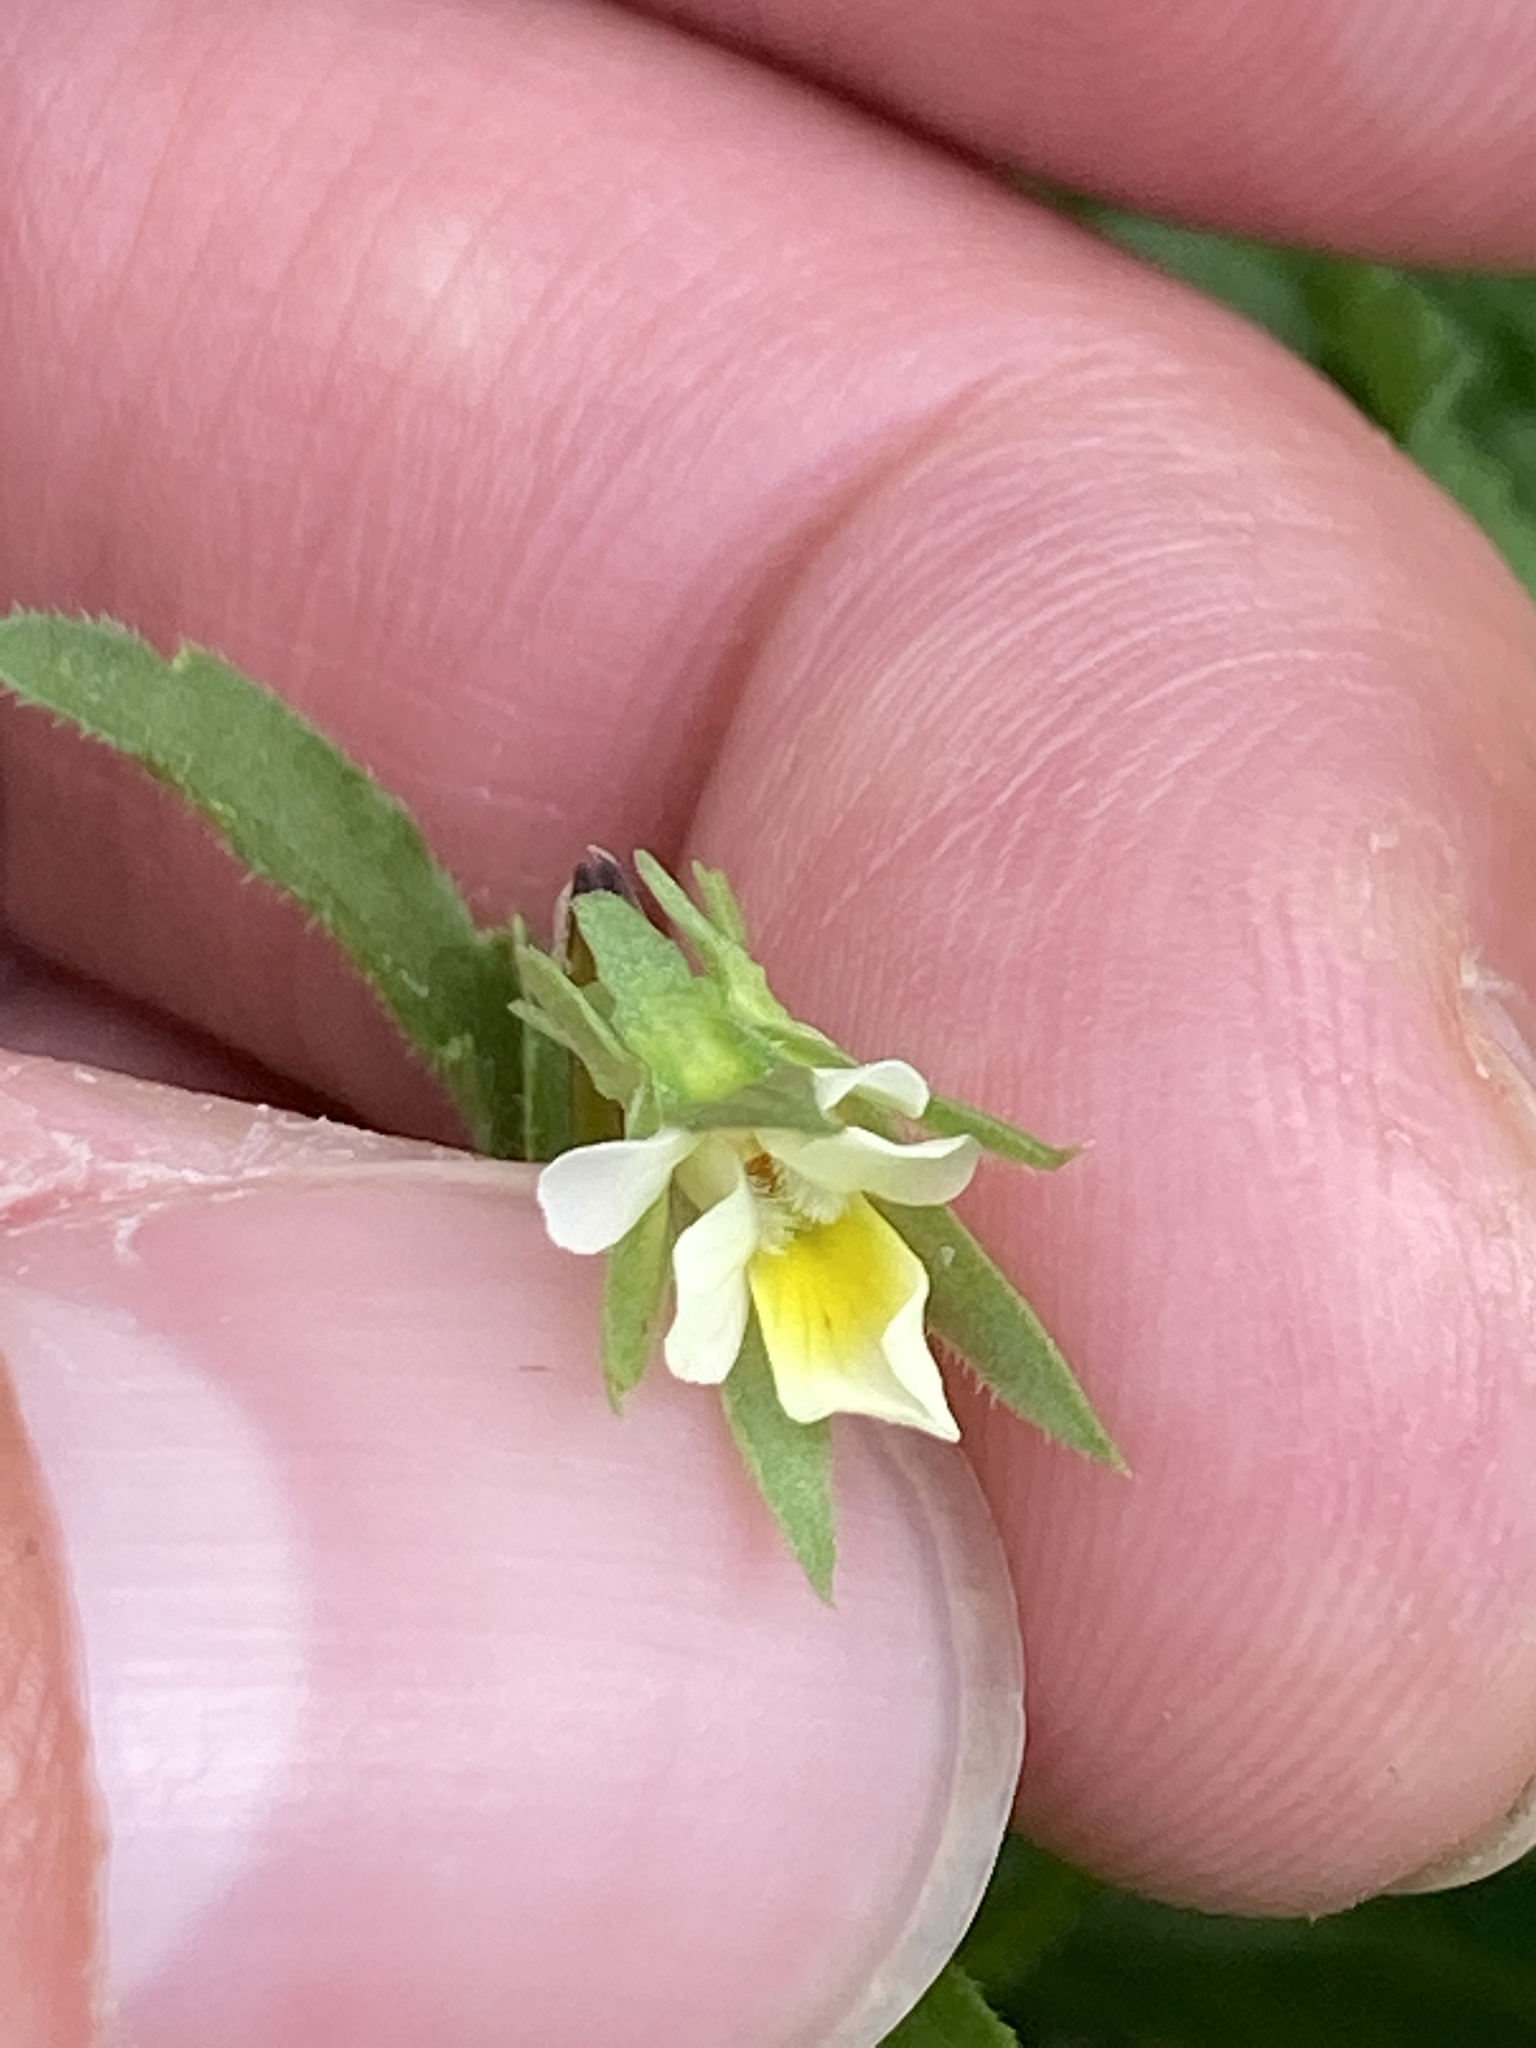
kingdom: Plantae
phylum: Tracheophyta
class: Magnoliopsida
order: Malpighiales
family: Violaceae
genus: Viola
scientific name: Viola arvensis
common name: Field pansy
